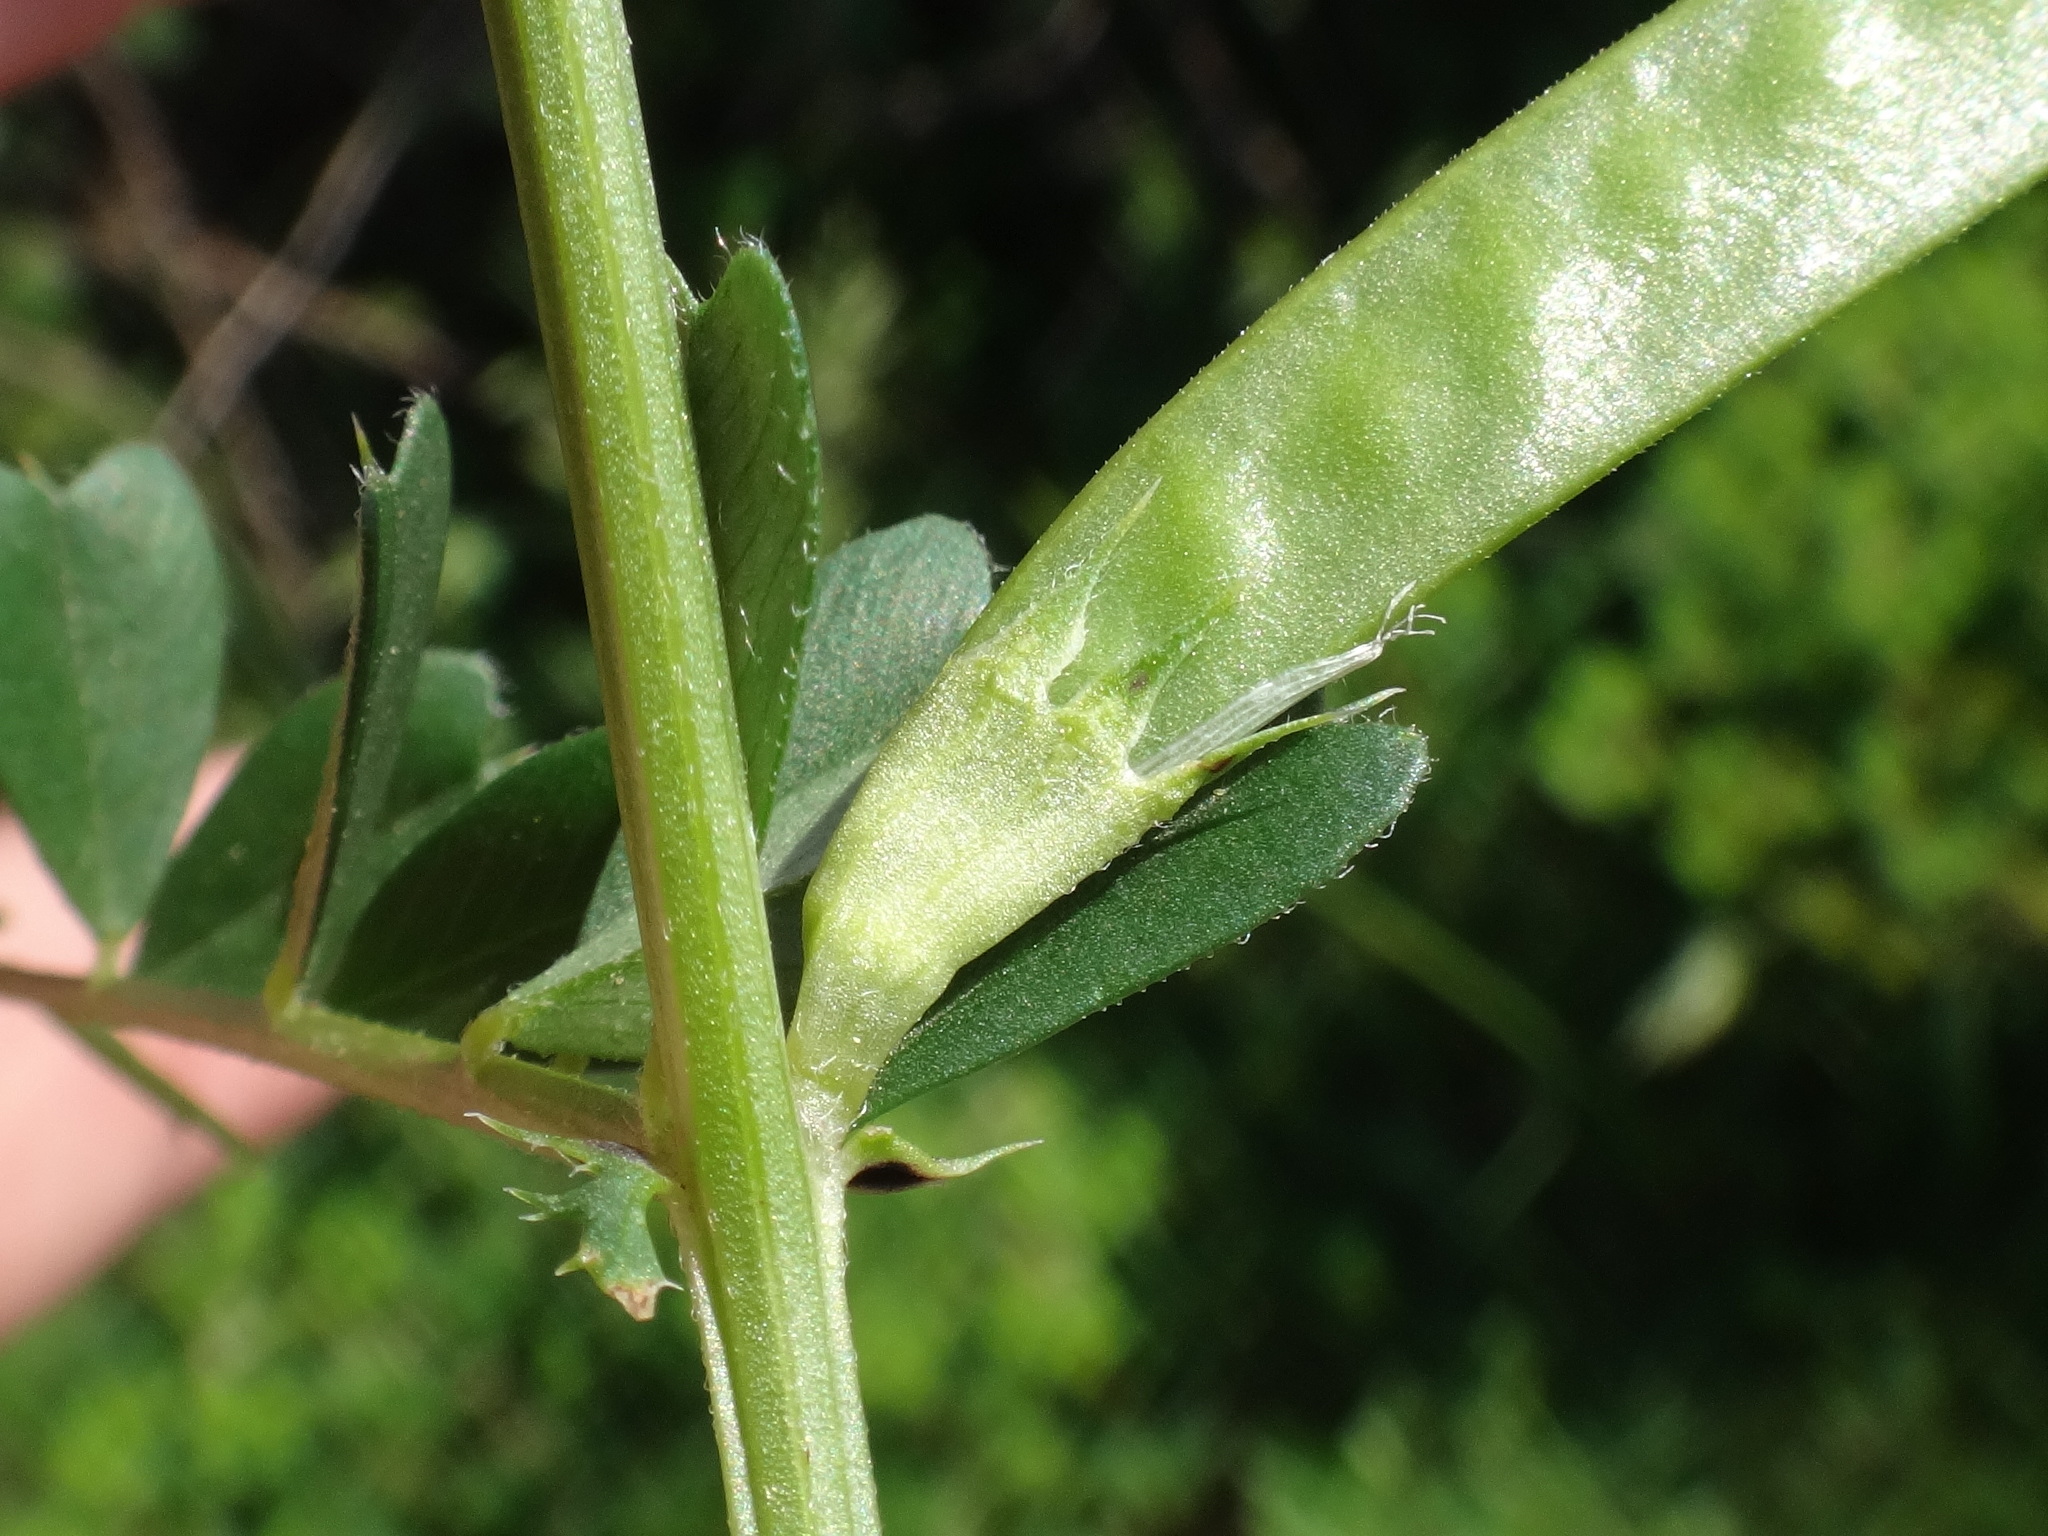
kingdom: Plantae
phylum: Tracheophyta
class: Magnoliopsida
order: Fabales
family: Fabaceae
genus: Vicia
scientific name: Vicia sativa
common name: Garden vetch
